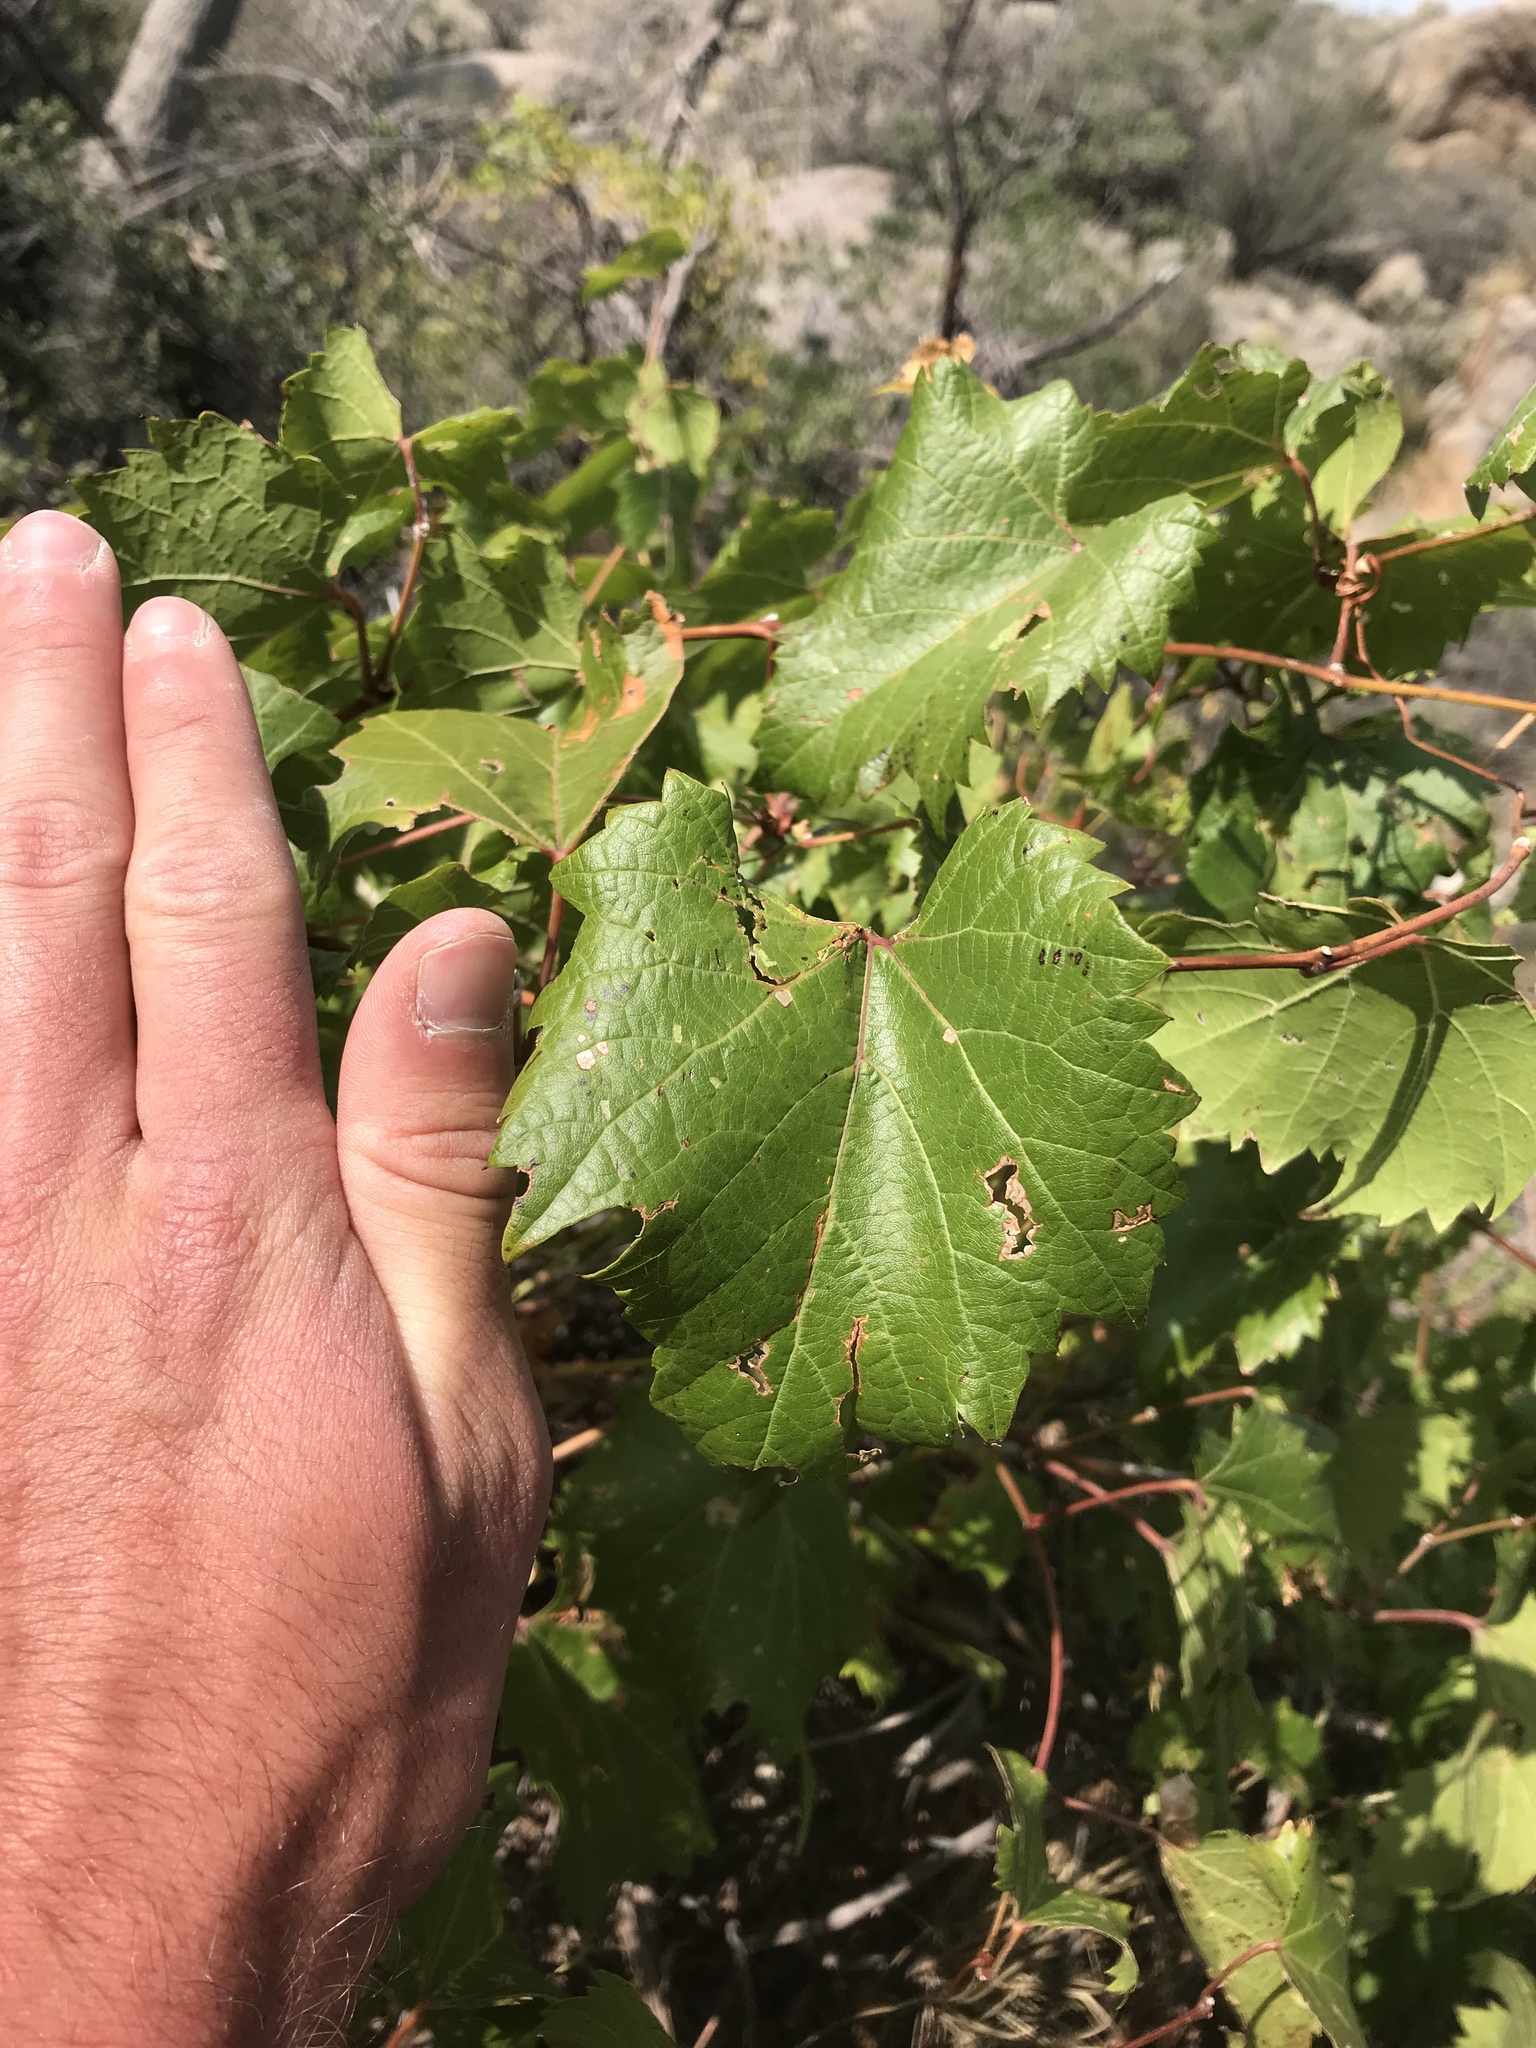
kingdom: Plantae
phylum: Tracheophyta
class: Magnoliopsida
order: Vitales
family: Vitaceae
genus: Vitis
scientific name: Vitis arizonica
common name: Canyon grape
